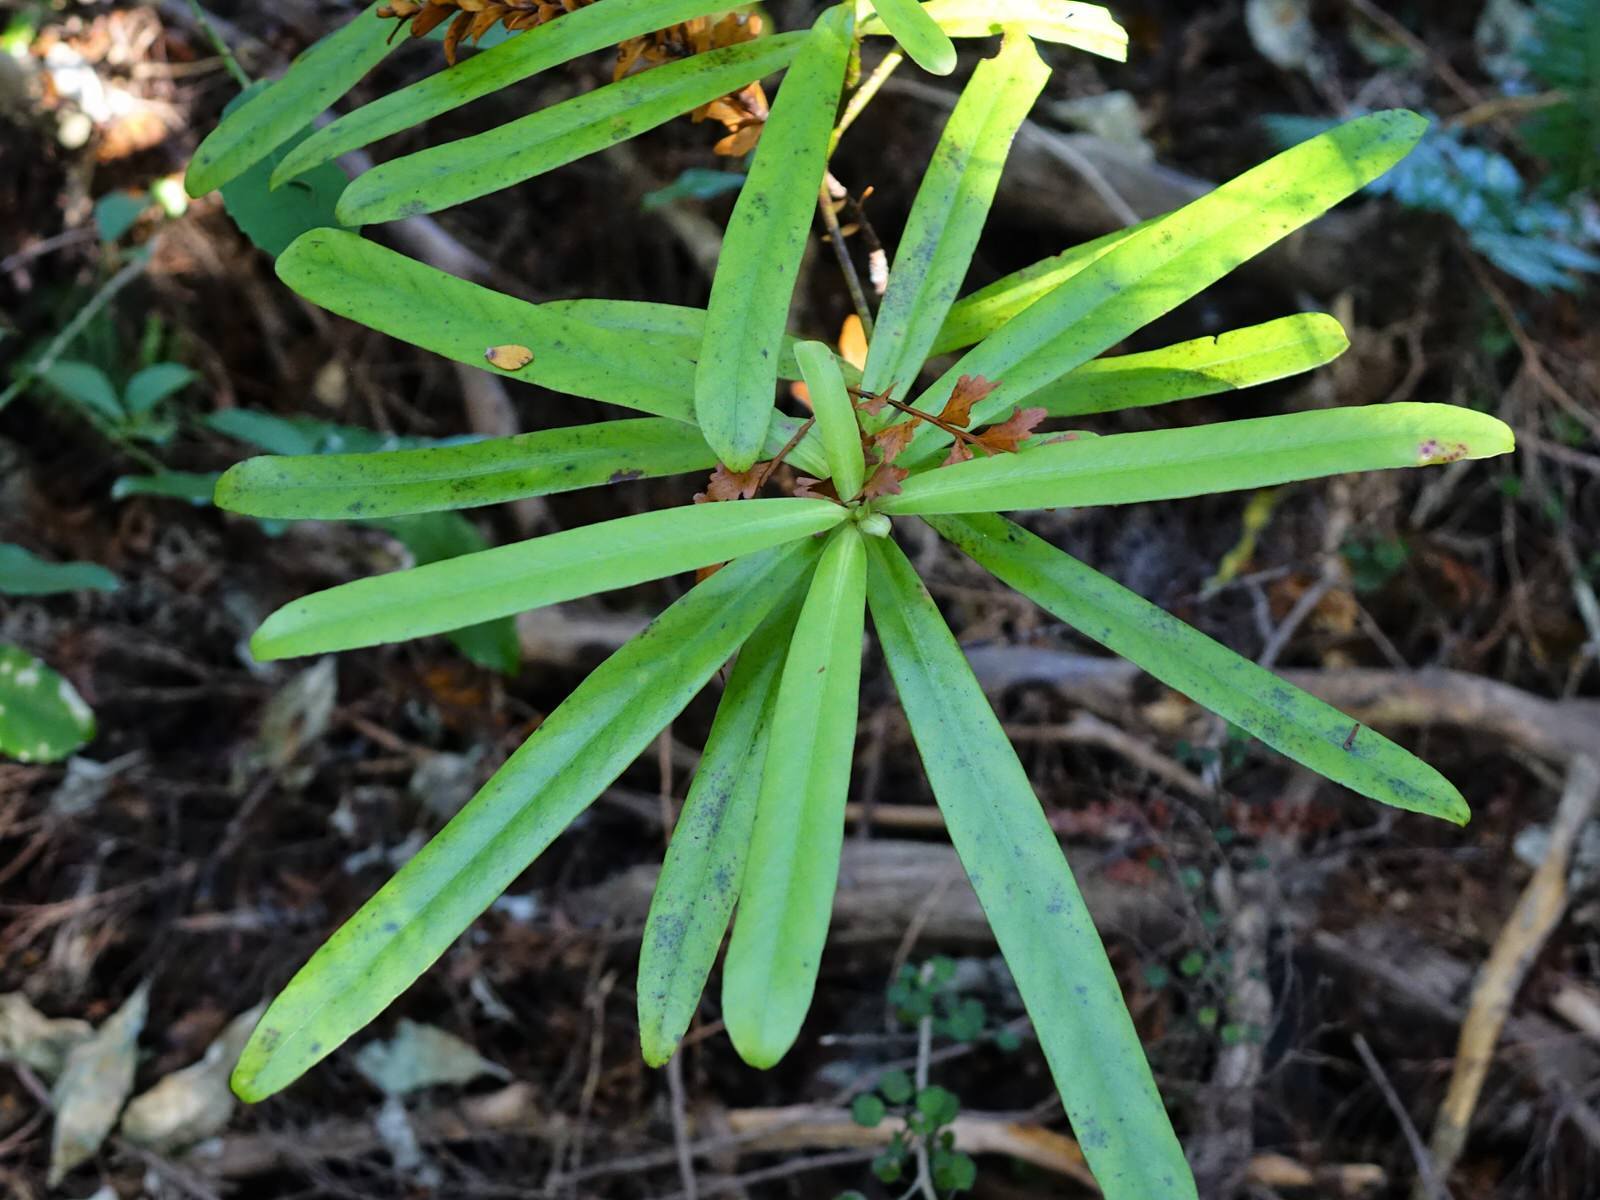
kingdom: Plantae
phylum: Tracheophyta
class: Magnoliopsida
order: Ericales
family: Primulaceae
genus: Myrsine
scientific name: Myrsine salicina
